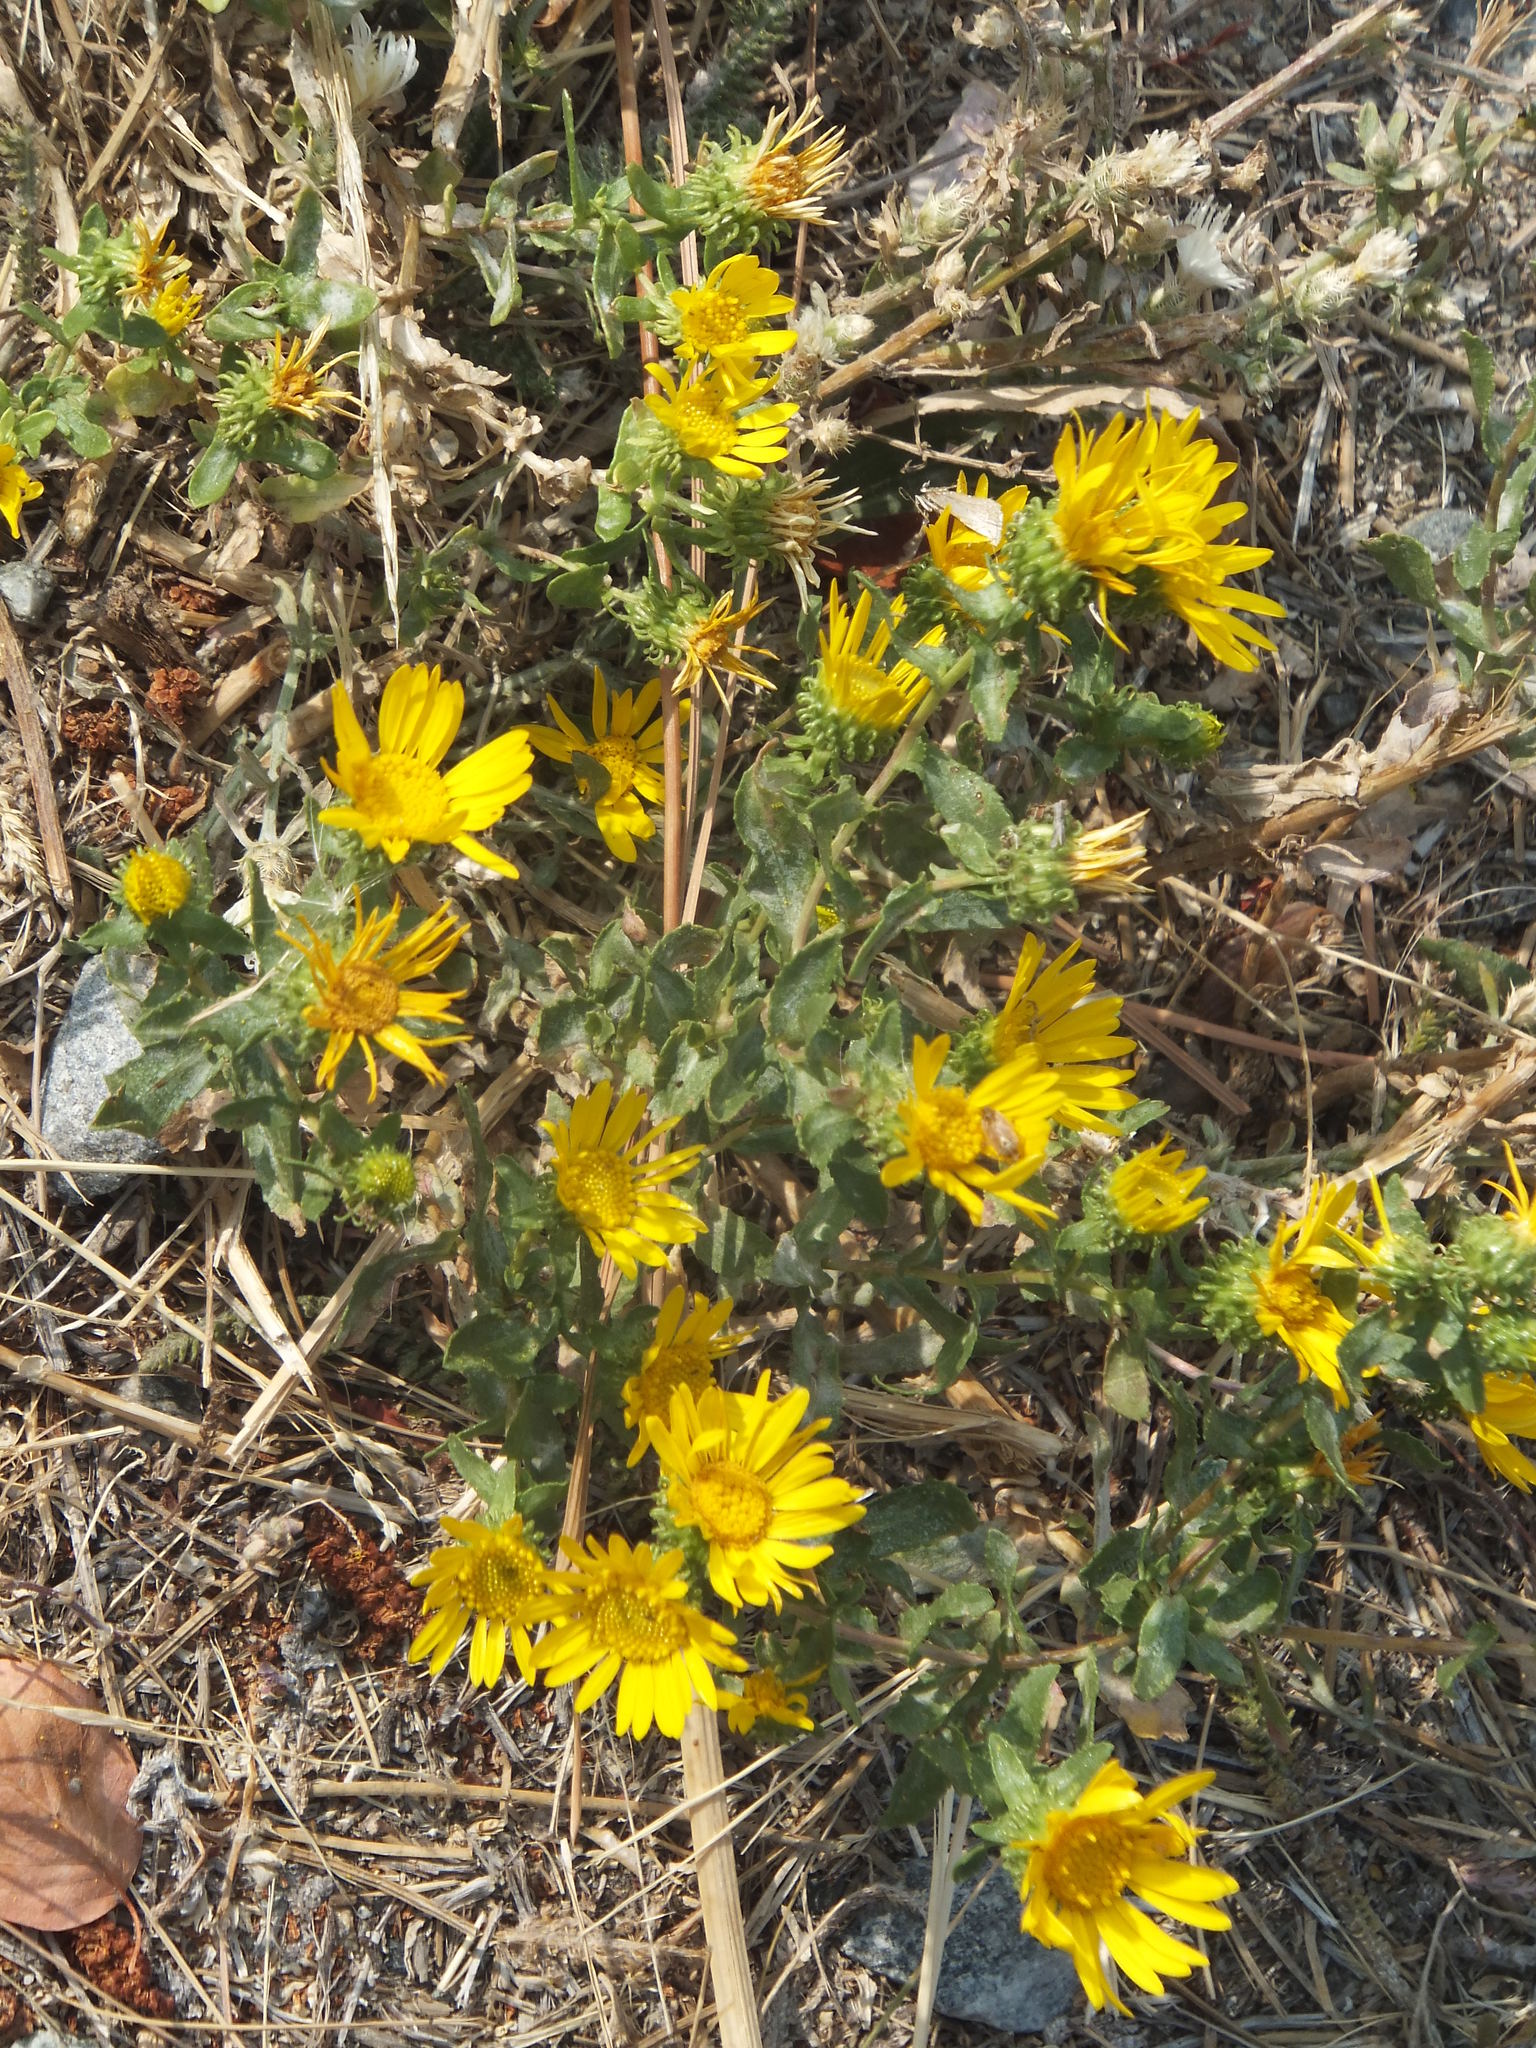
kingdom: Plantae
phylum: Tracheophyta
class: Magnoliopsida
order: Asterales
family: Asteraceae
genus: Grindelia
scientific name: Grindelia squarrosa
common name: Curly-cup gumweed
